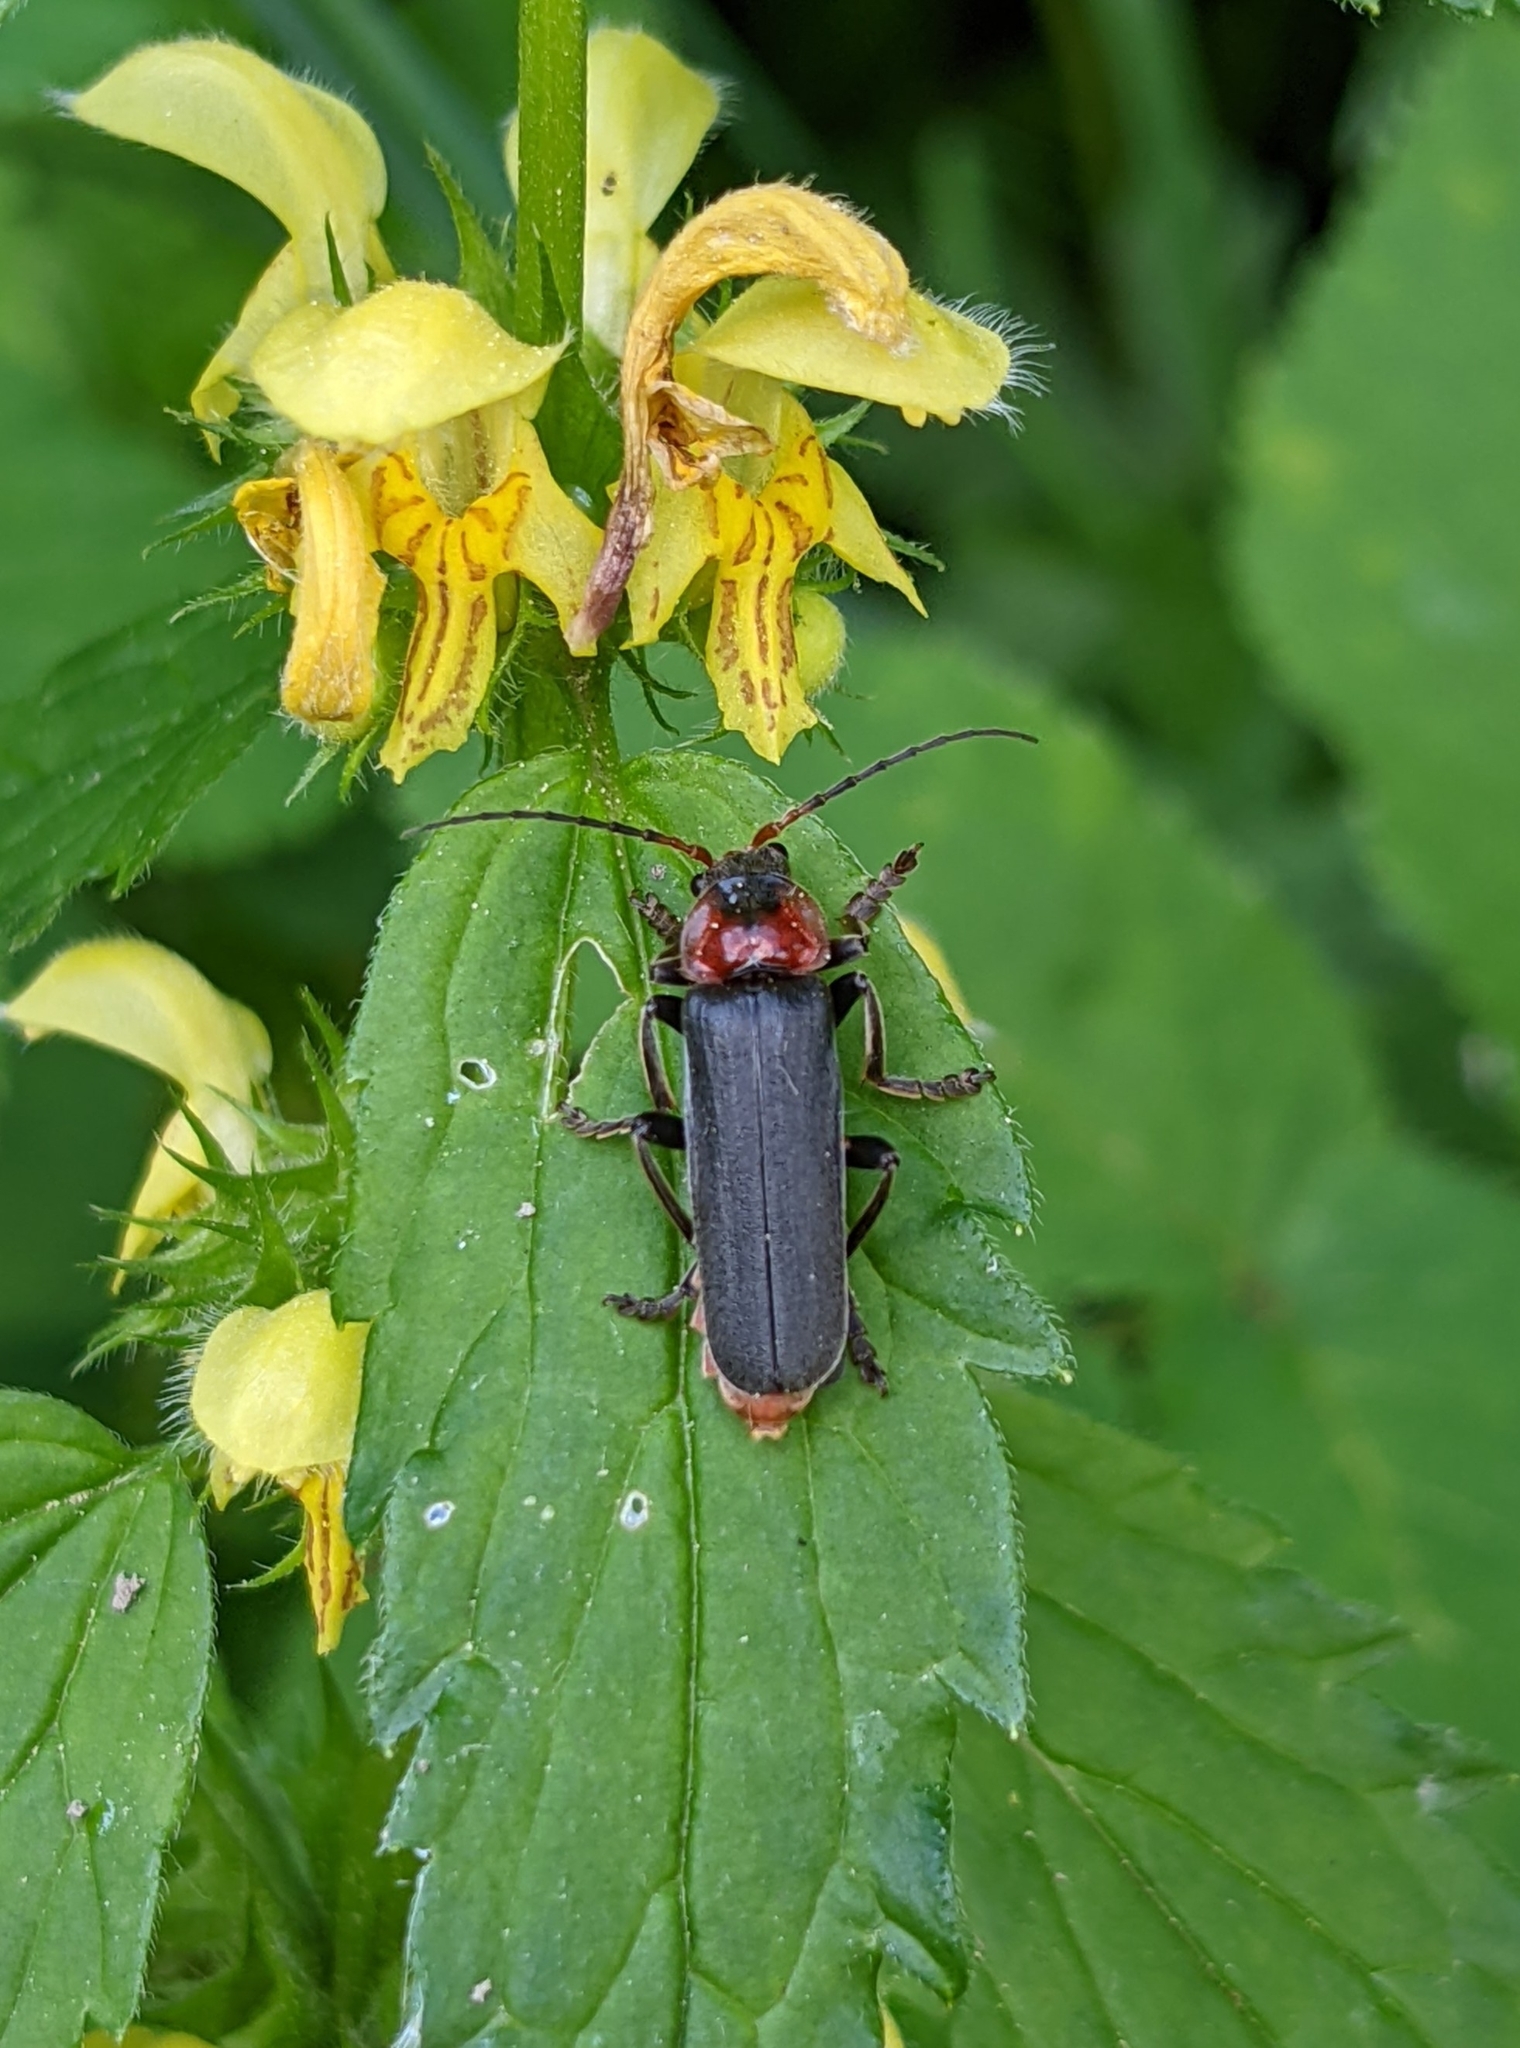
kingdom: Animalia
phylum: Arthropoda
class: Insecta
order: Coleoptera
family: Cantharidae
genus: Cantharis
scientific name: Cantharis fusca
